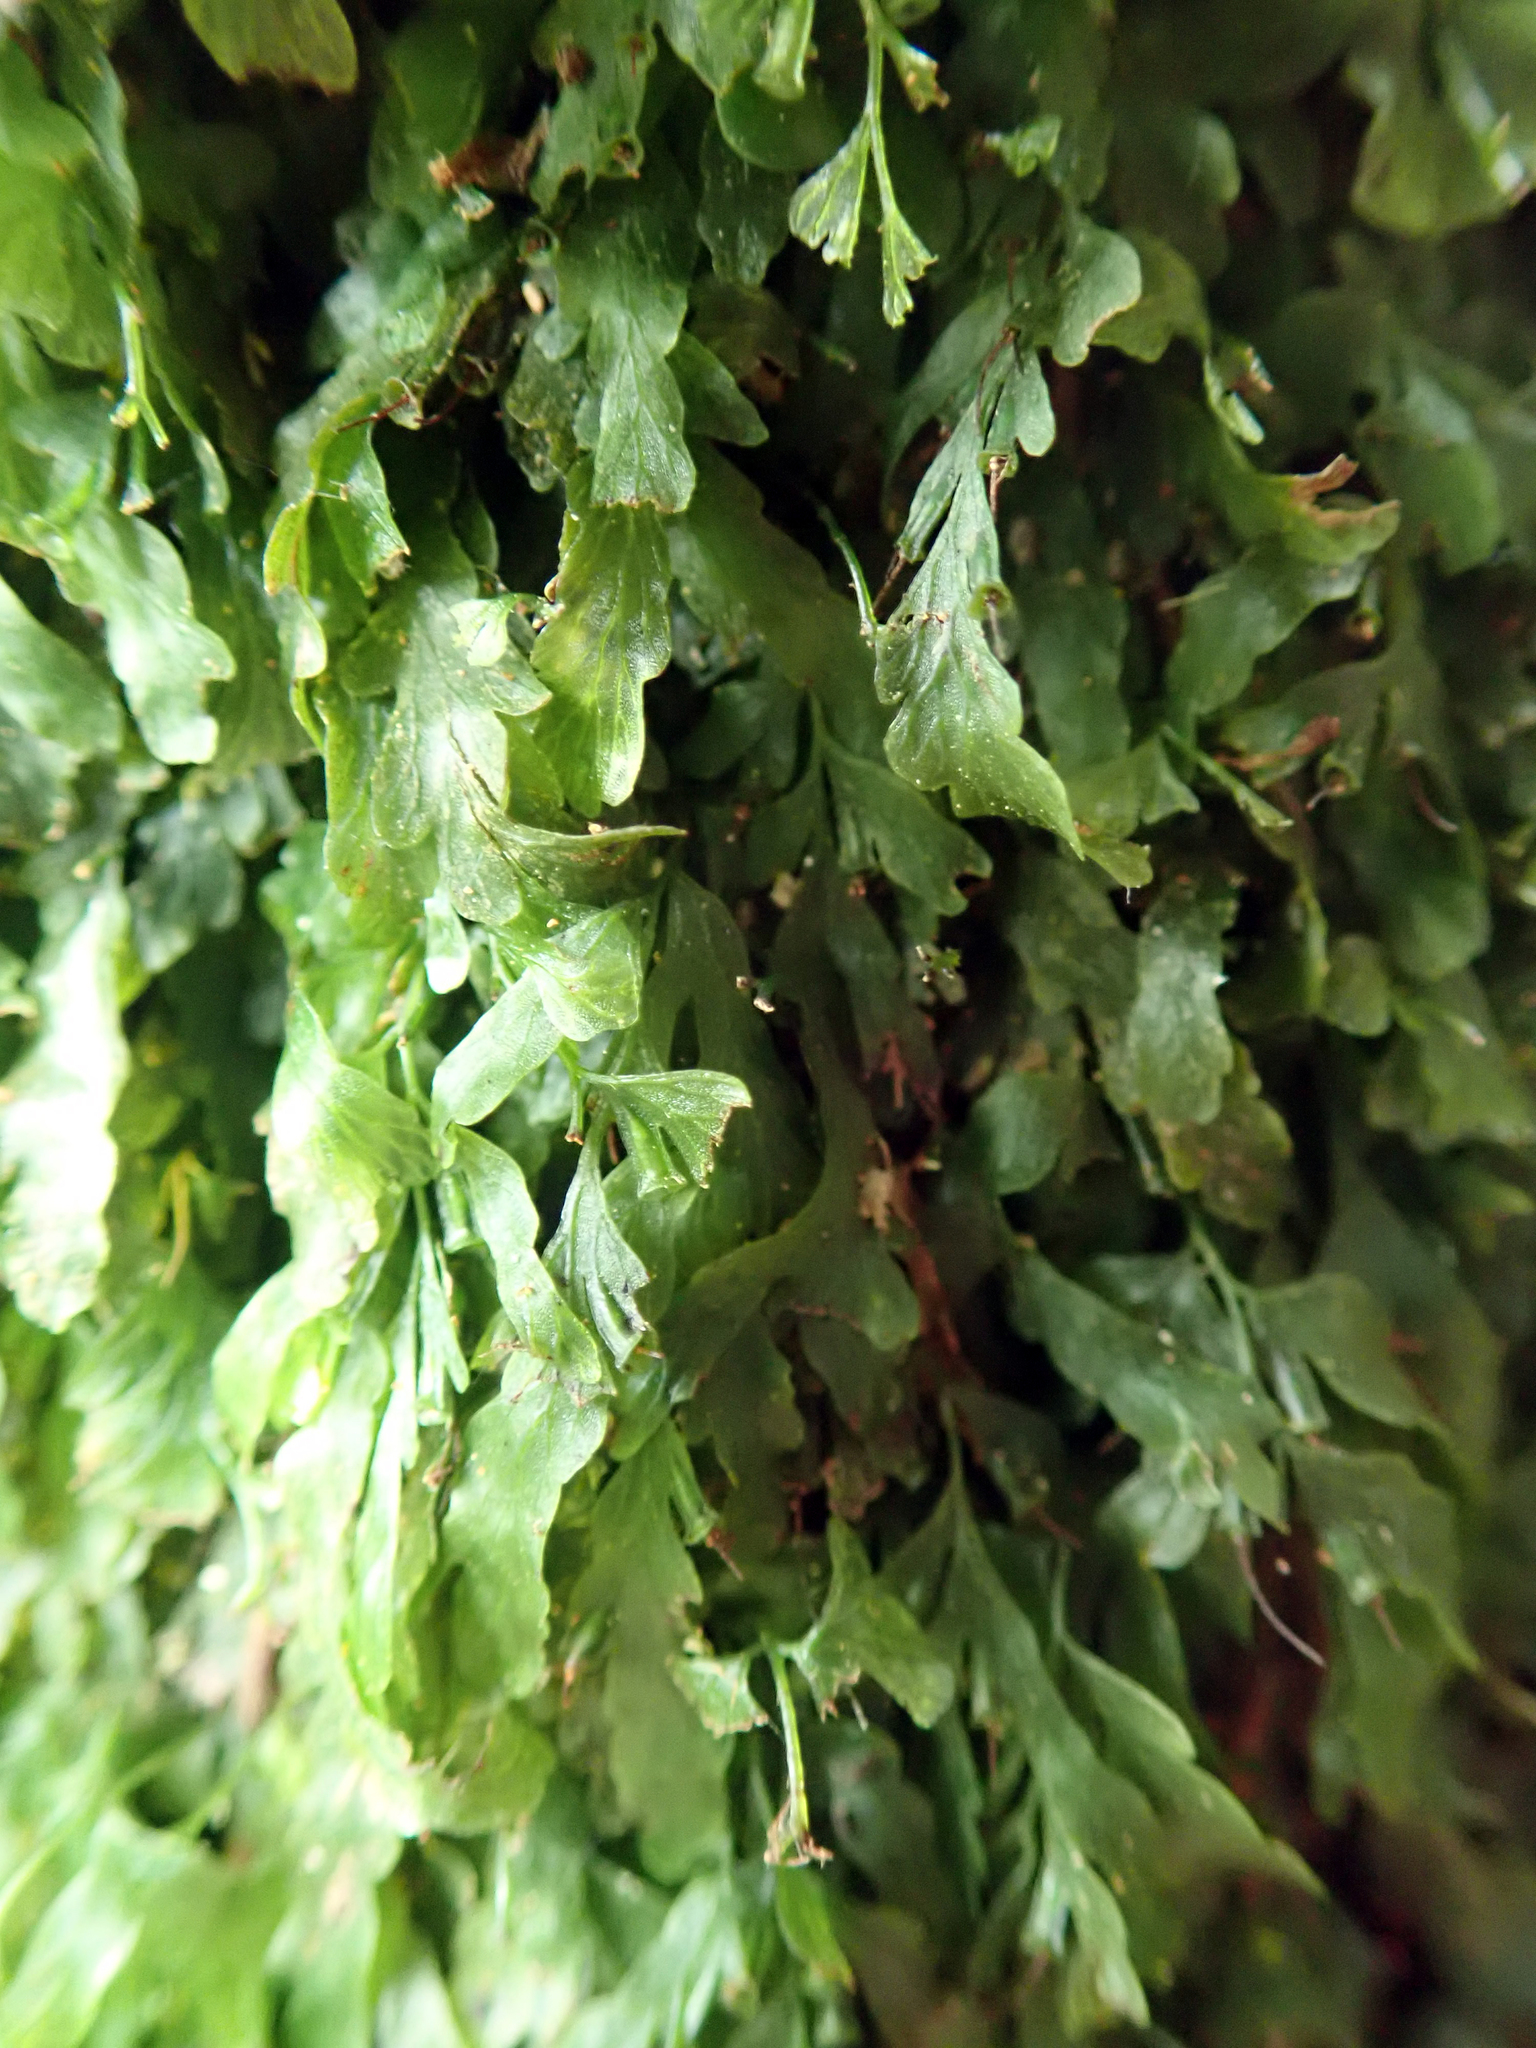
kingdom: Plantae
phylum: Tracheophyta
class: Polypodiopsida
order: Hymenophyllales
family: Hymenophyllaceae
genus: Polyphlebium
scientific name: Polyphlebium venosum
